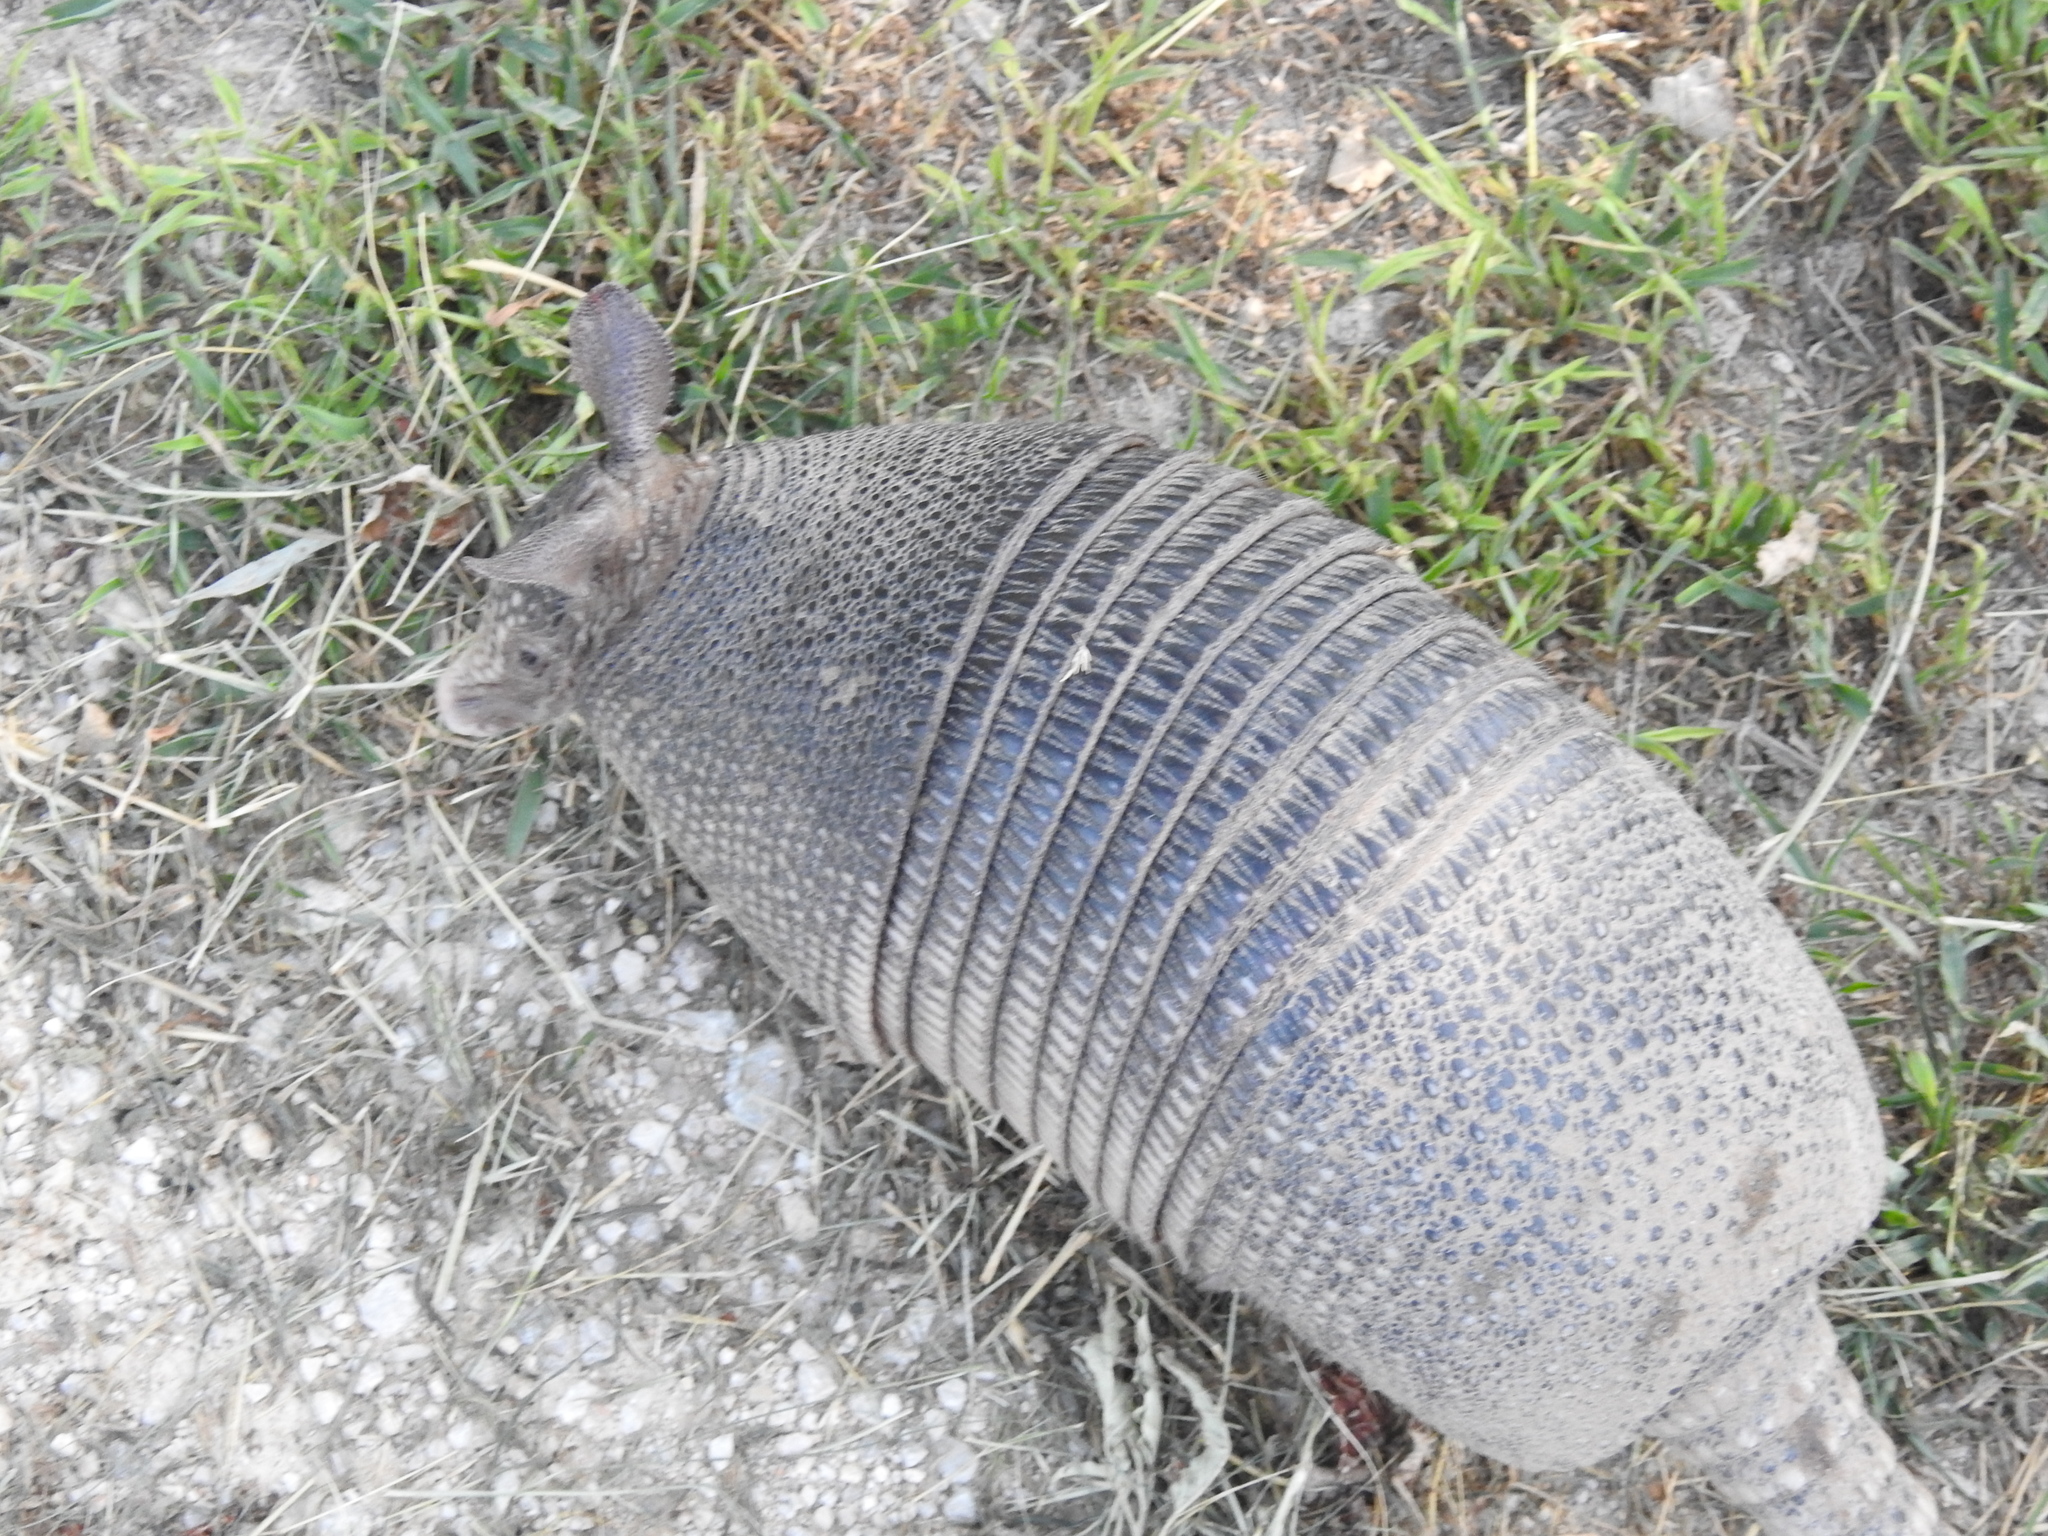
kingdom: Animalia
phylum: Chordata
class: Mammalia
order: Cingulata
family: Dasypodidae
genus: Dasypus
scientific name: Dasypus novemcinctus
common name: Nine-banded armadillo
